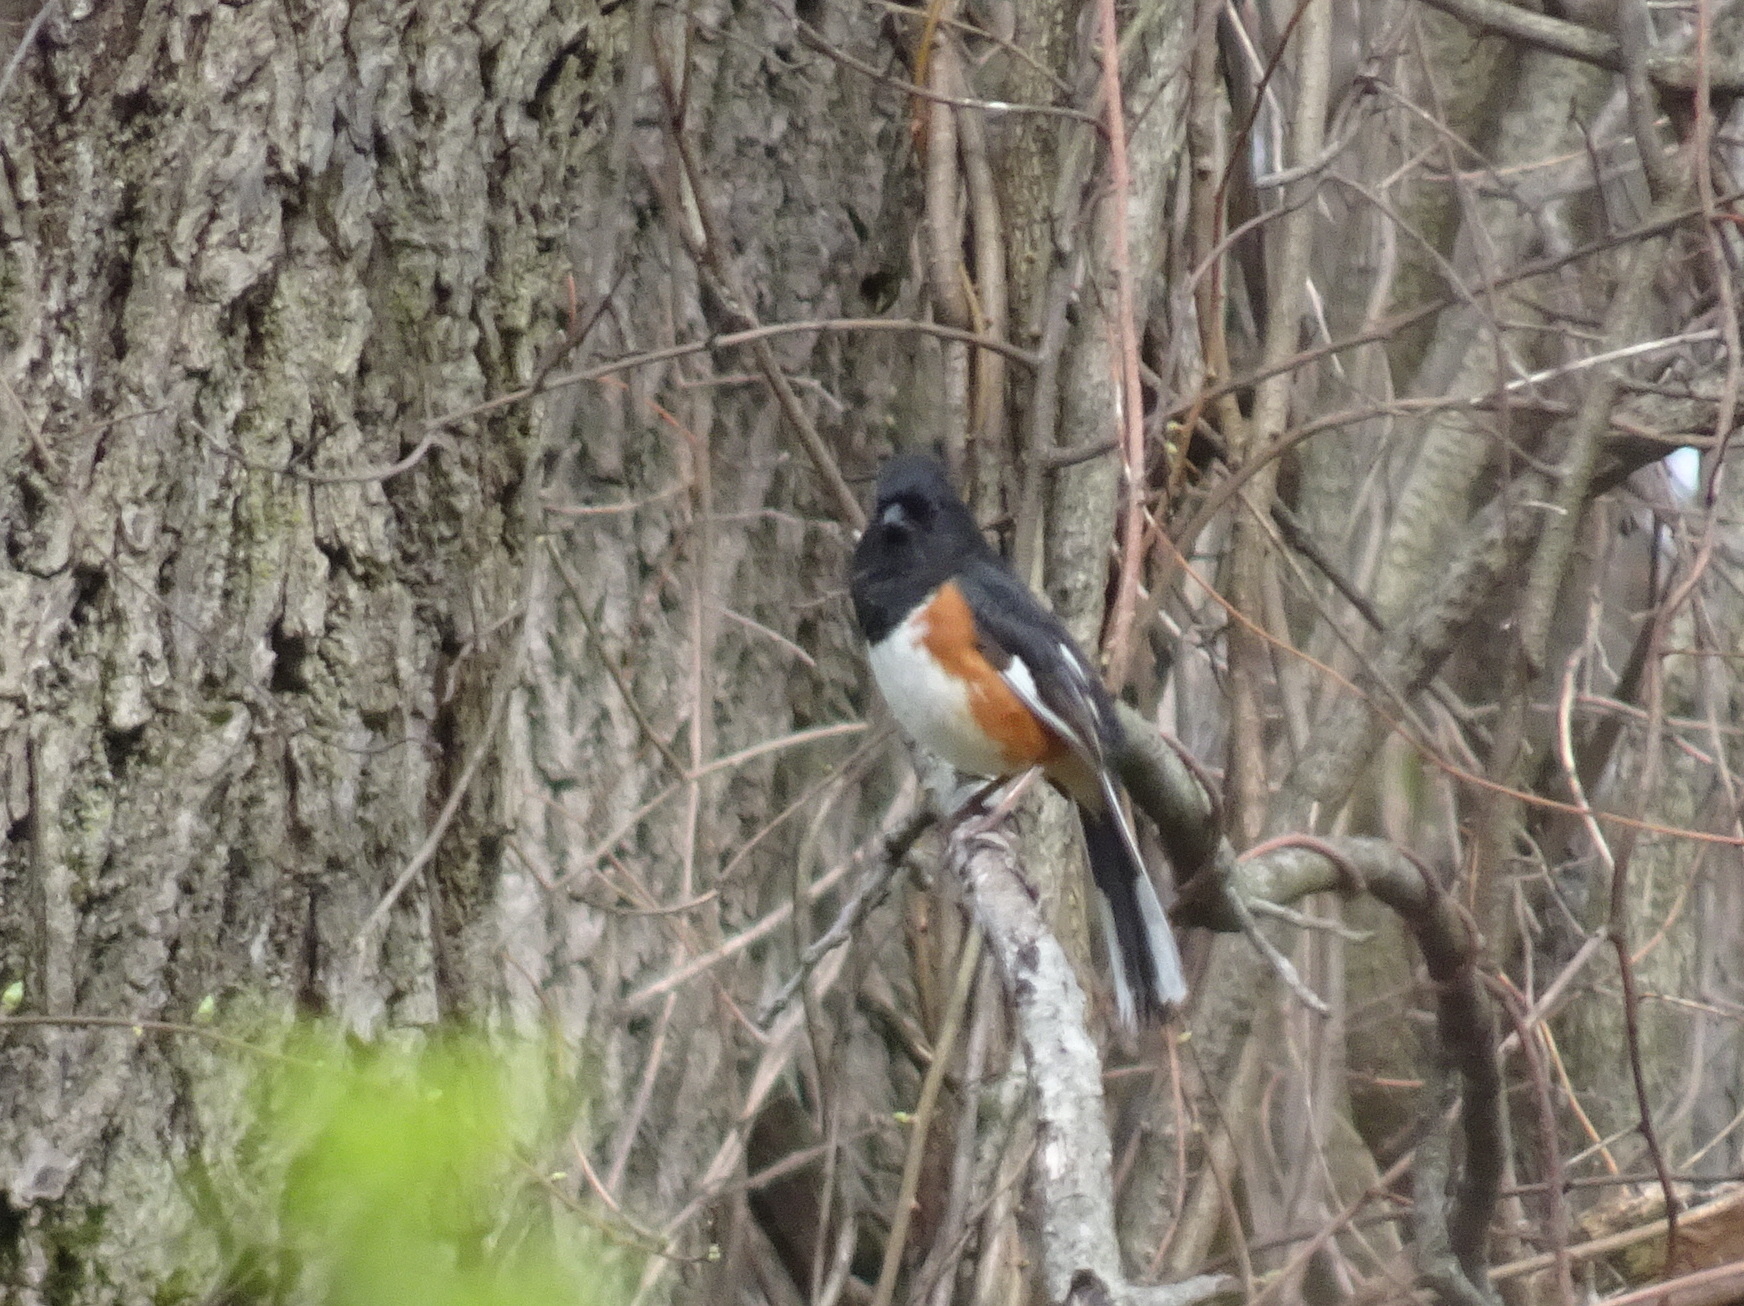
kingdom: Animalia
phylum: Chordata
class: Aves
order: Passeriformes
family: Passerellidae
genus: Pipilo
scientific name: Pipilo erythrophthalmus
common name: Eastern towhee
